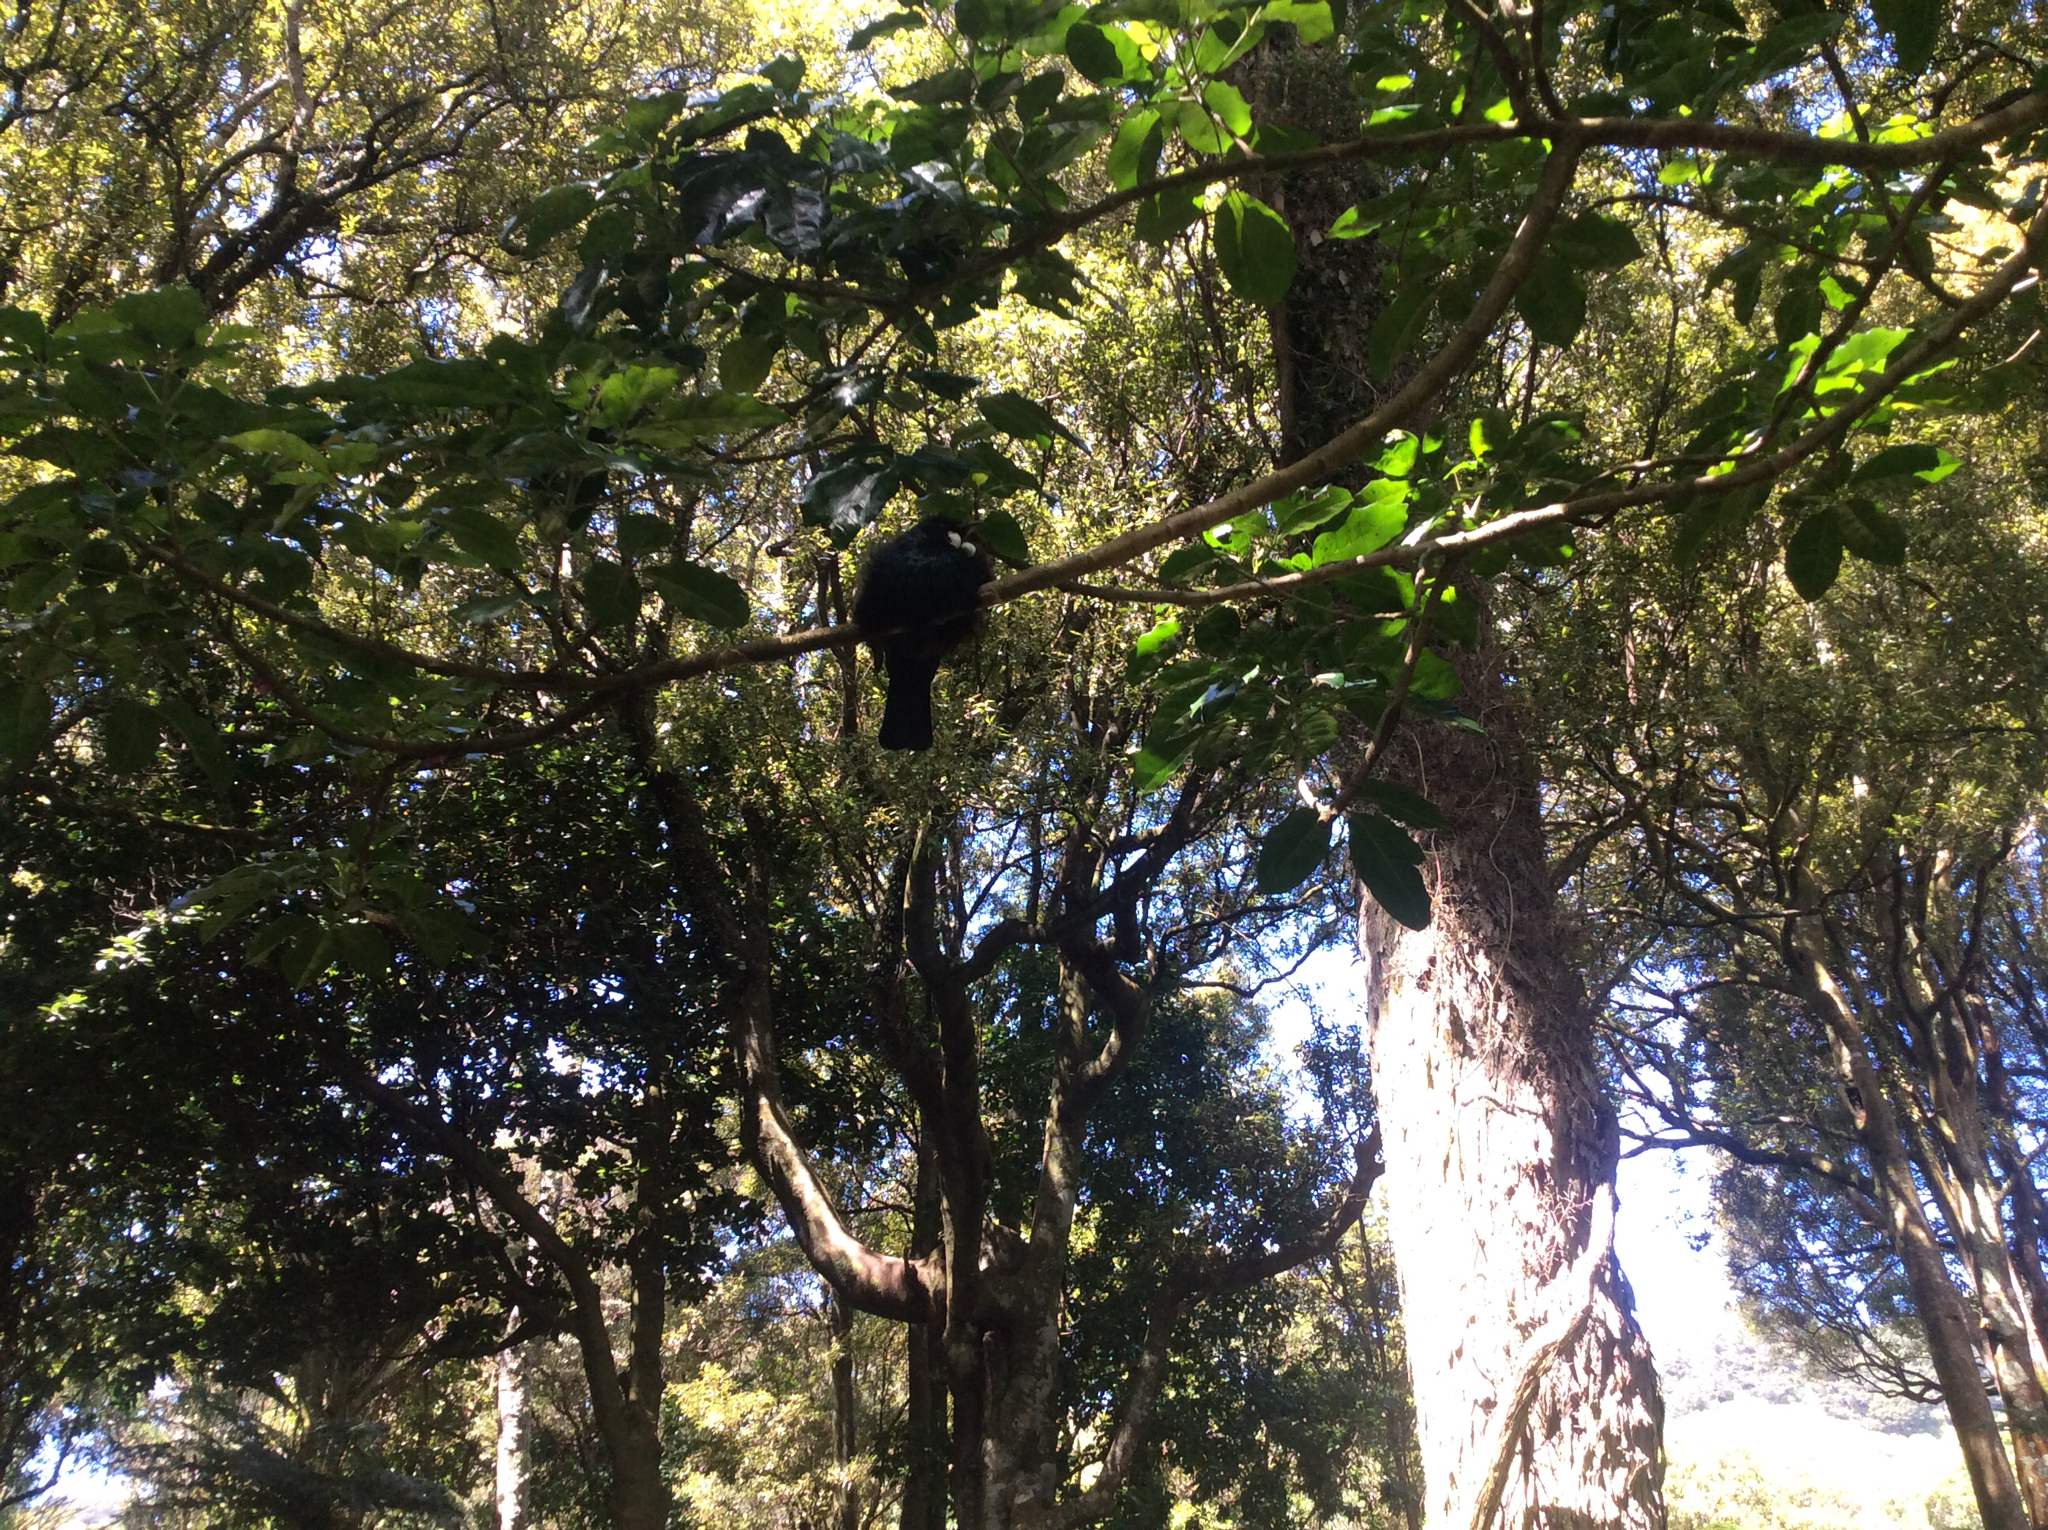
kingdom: Animalia
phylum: Chordata
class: Aves
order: Passeriformes
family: Meliphagidae
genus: Prosthemadera
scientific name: Prosthemadera novaeseelandiae
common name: Tui
